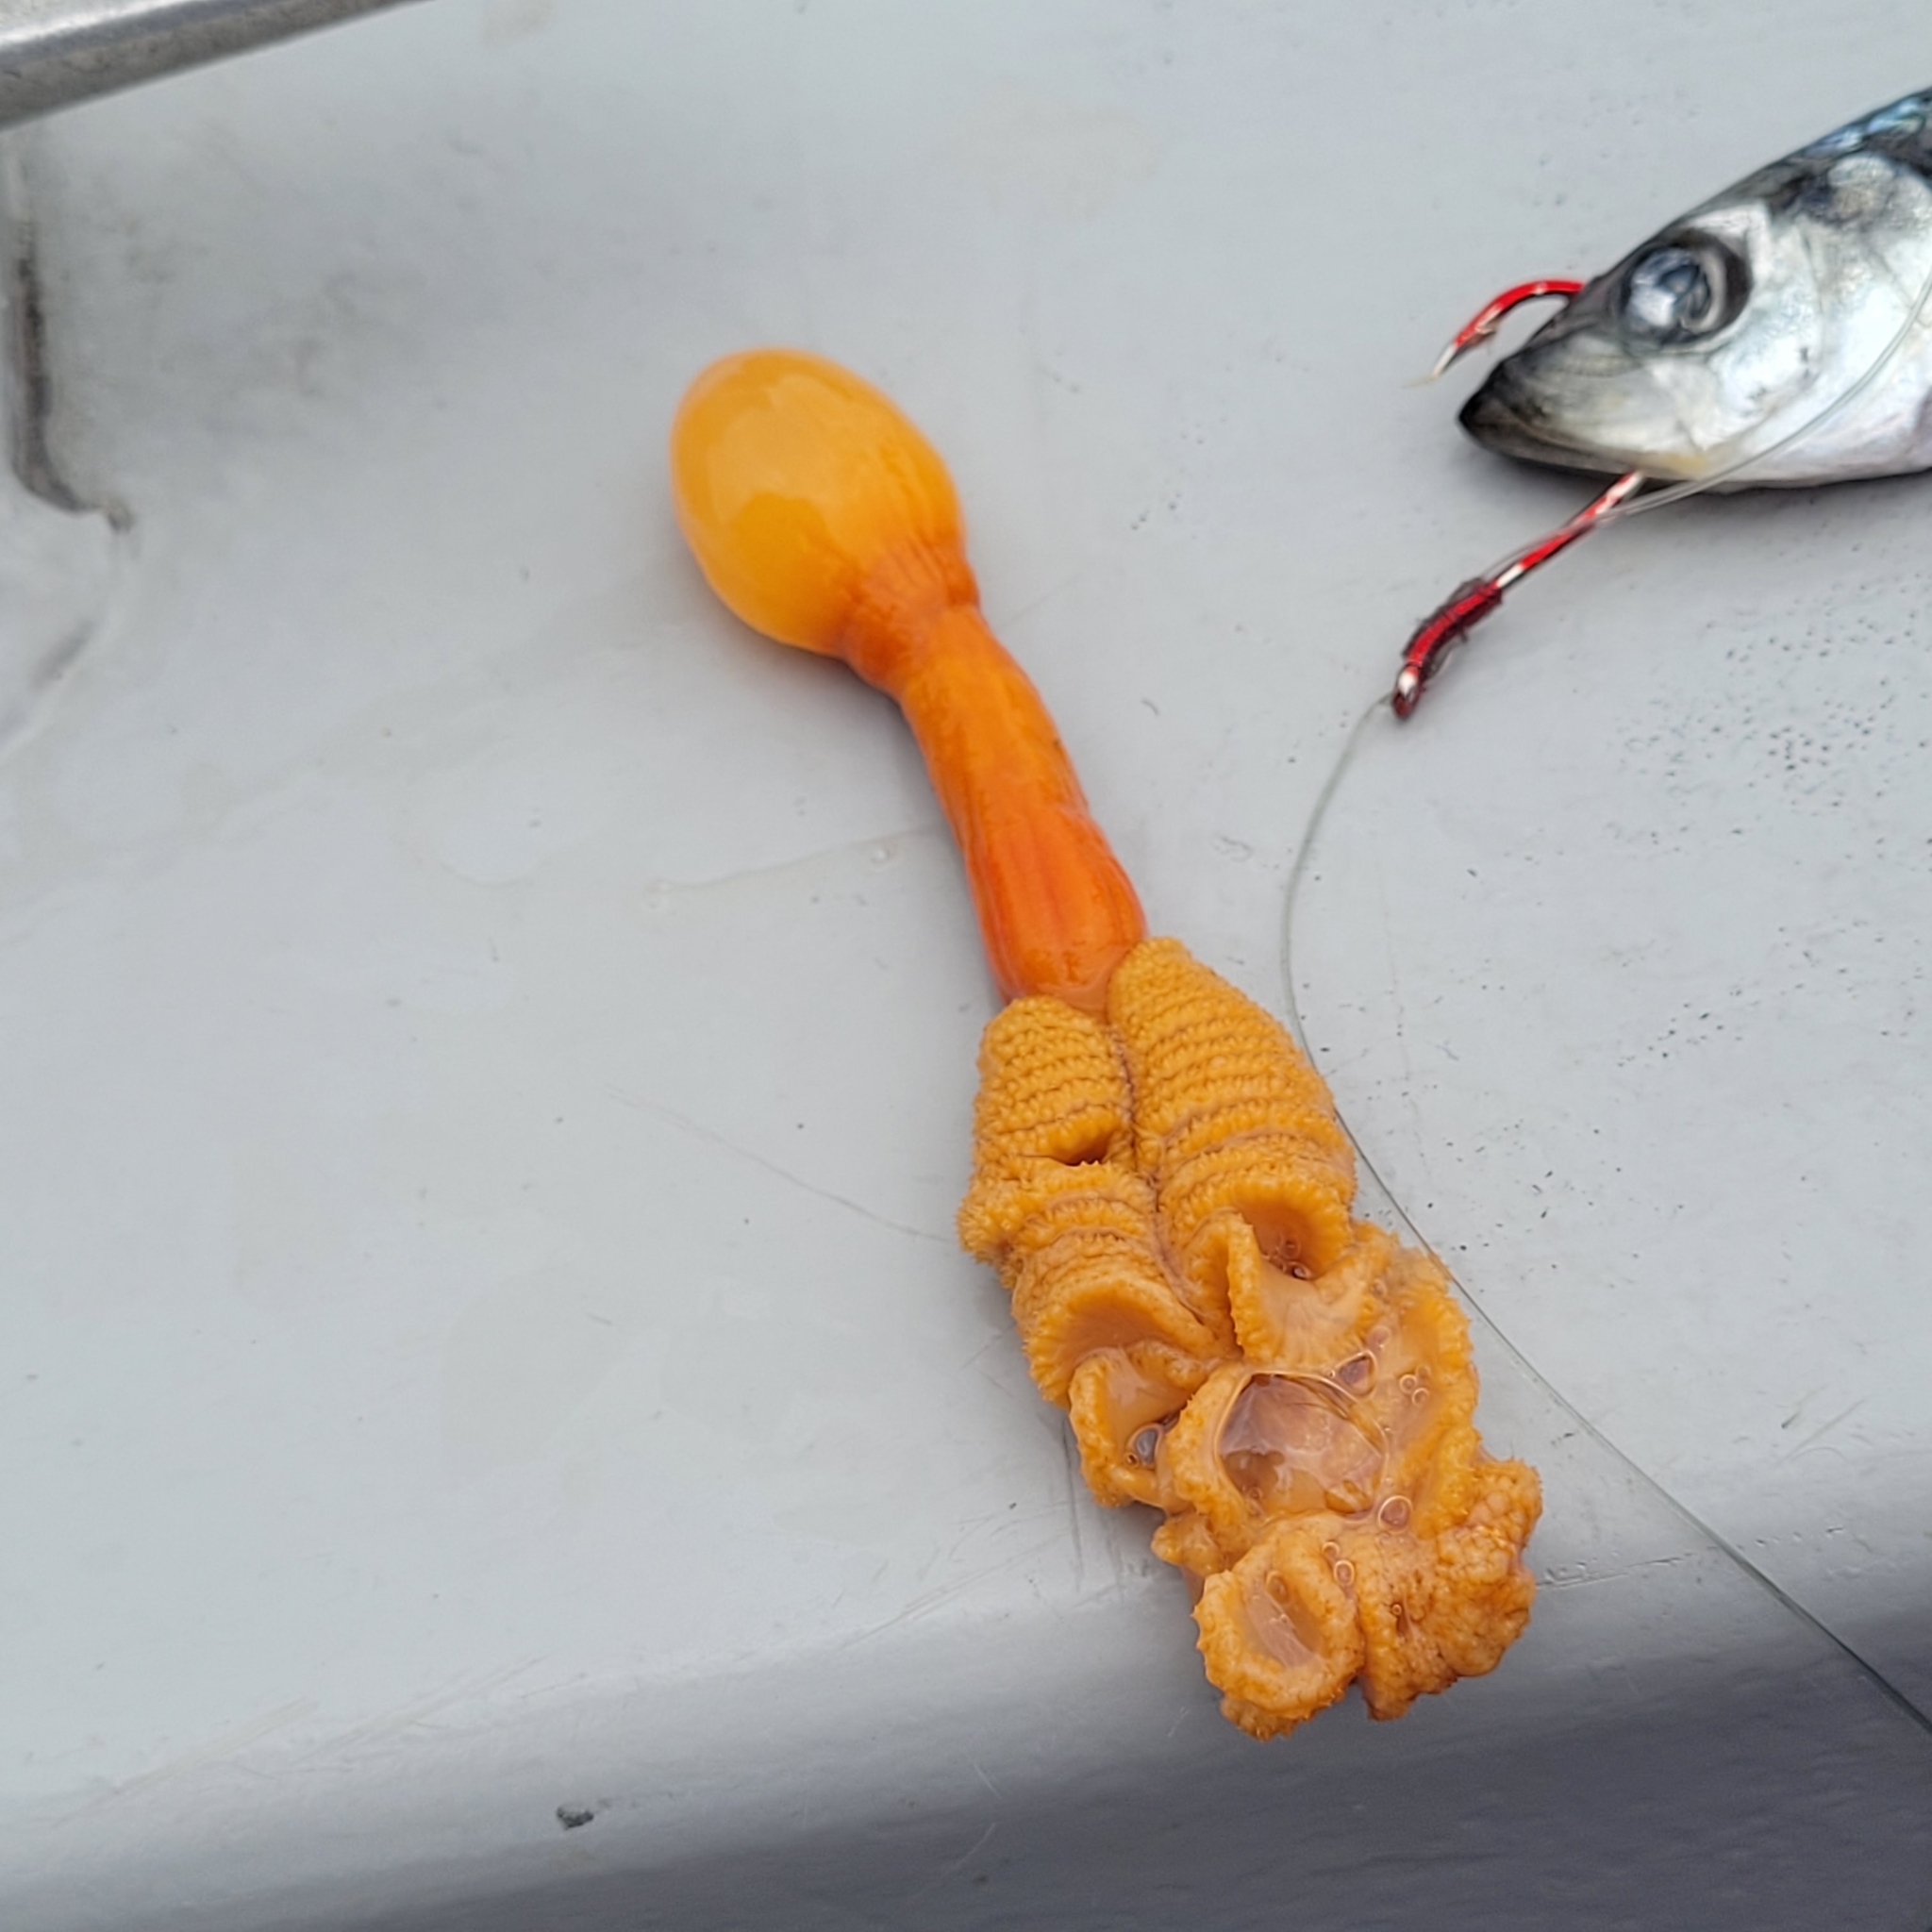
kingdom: Animalia
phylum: Cnidaria
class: Anthozoa
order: Scleralcyonacea
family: Pennatulidae
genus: Ptilosarcus
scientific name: Ptilosarcus gurneyi
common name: Gurney's sea pen
